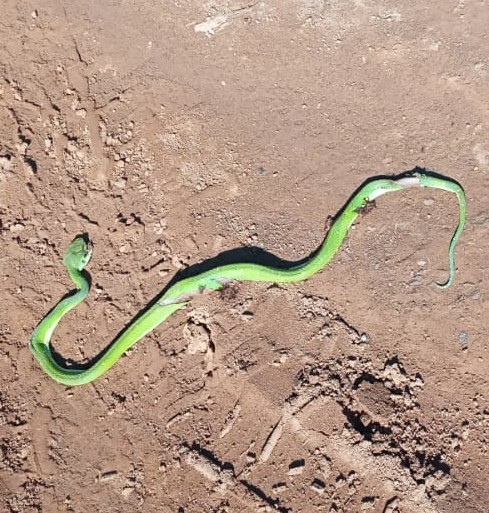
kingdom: Animalia
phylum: Chordata
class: Squamata
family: Viperidae
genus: Bothriechis
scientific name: Bothriechis lateralis
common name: Coffee palm viper
